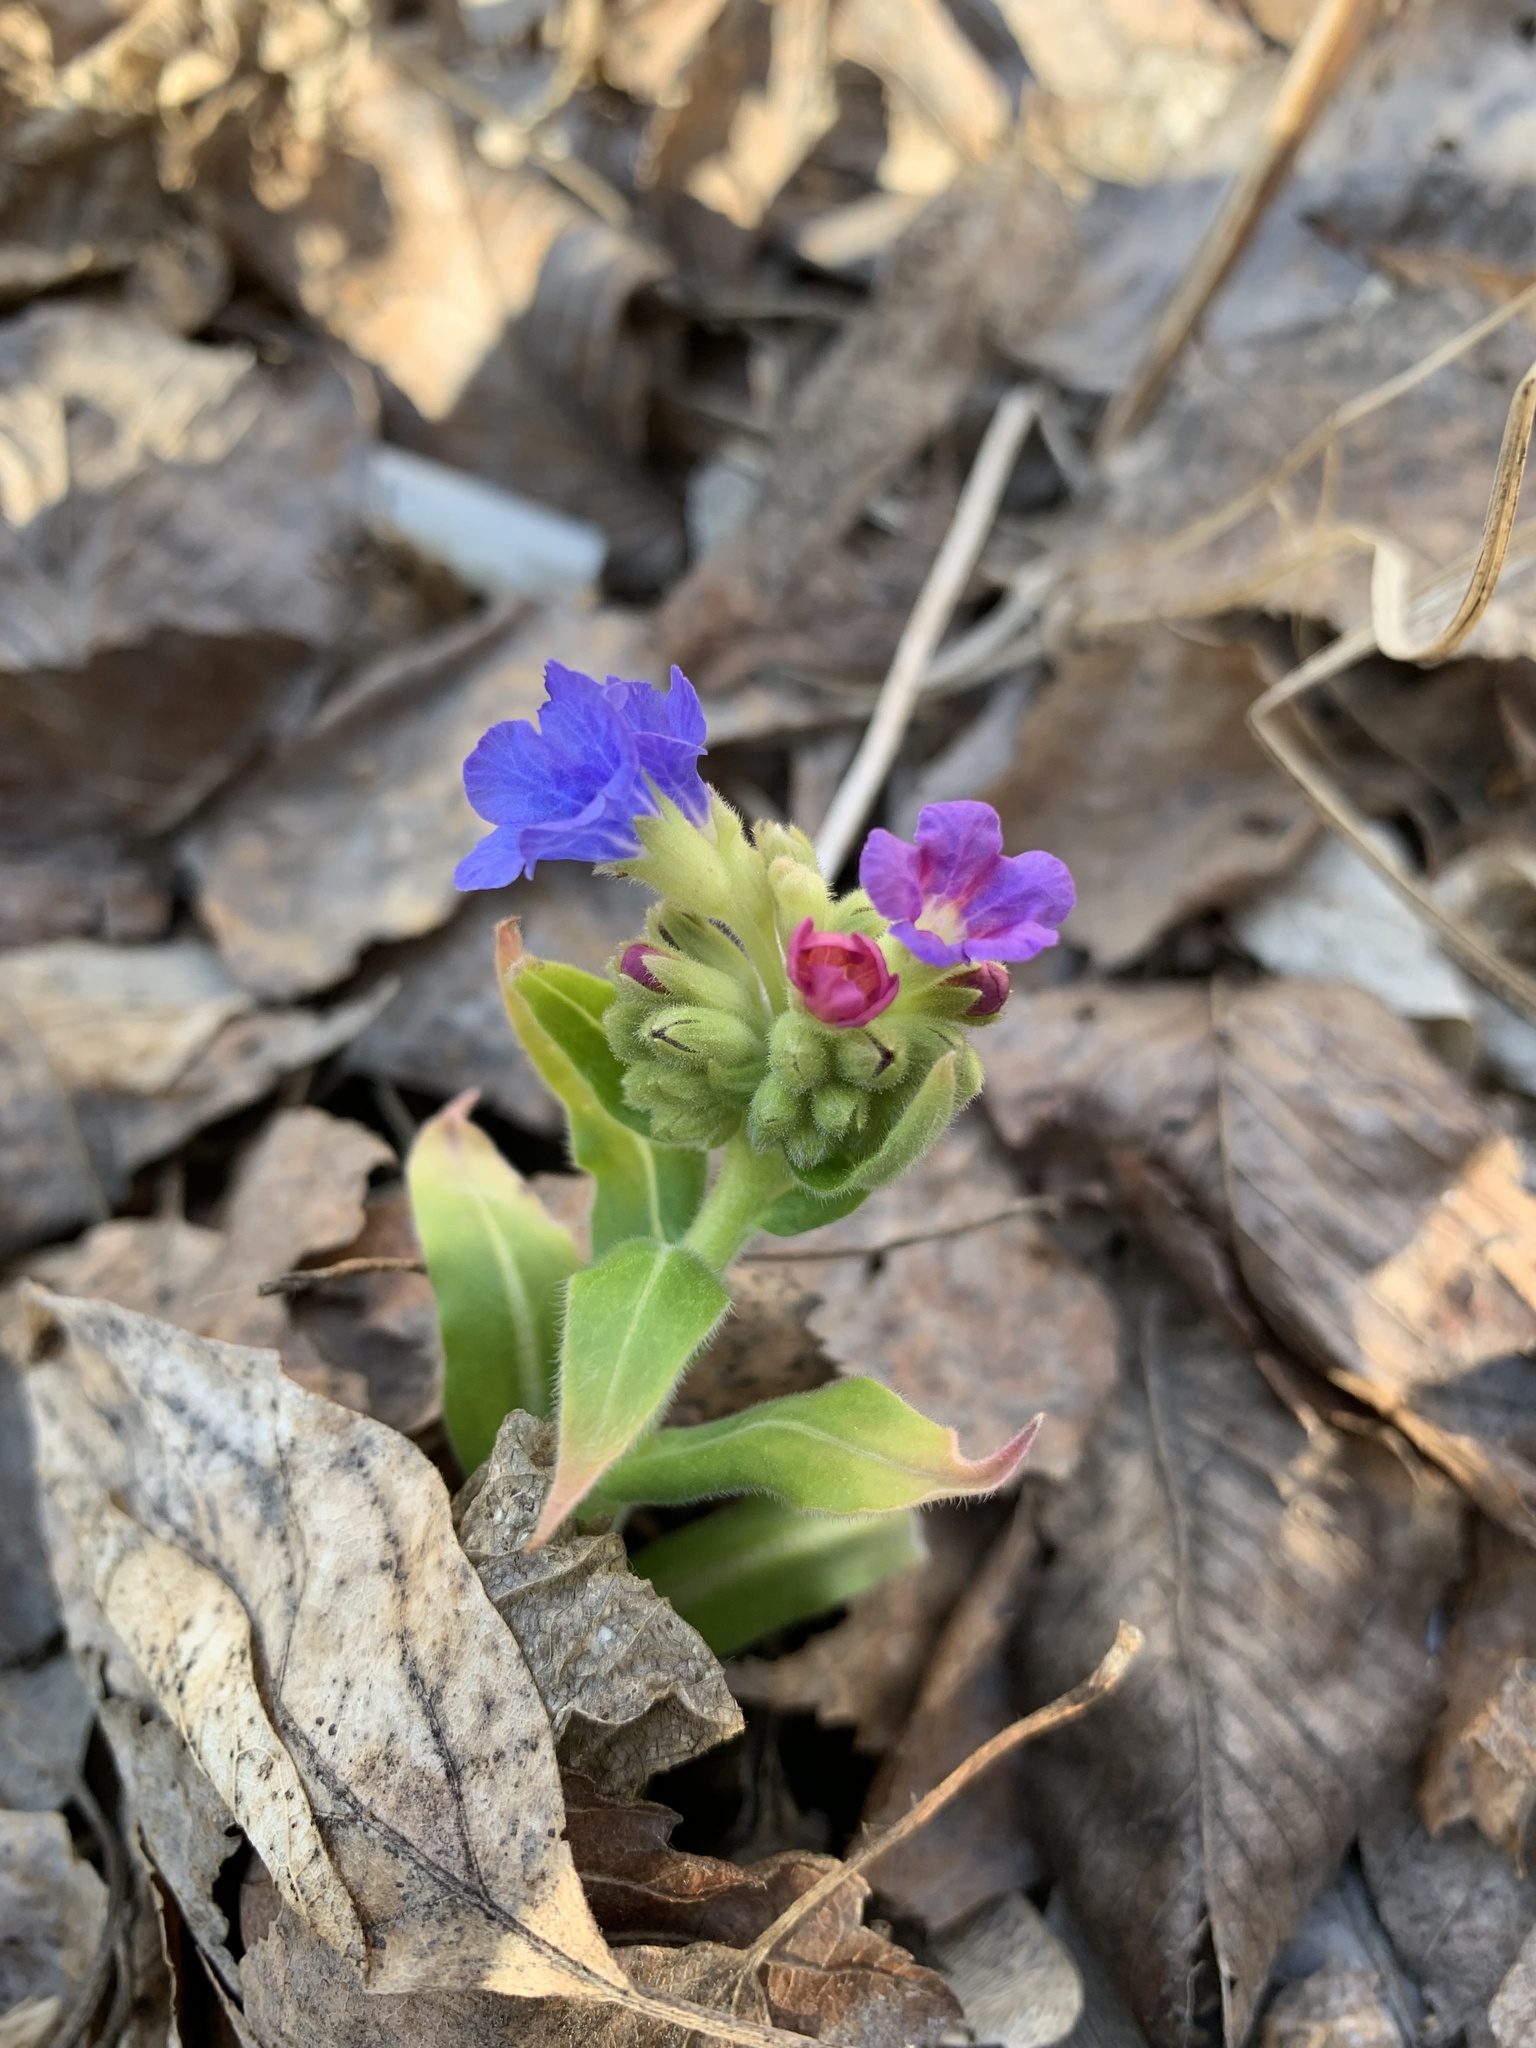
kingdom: Plantae
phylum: Tracheophyta
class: Magnoliopsida
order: Boraginales
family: Boraginaceae
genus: Pulmonaria
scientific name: Pulmonaria mollis
